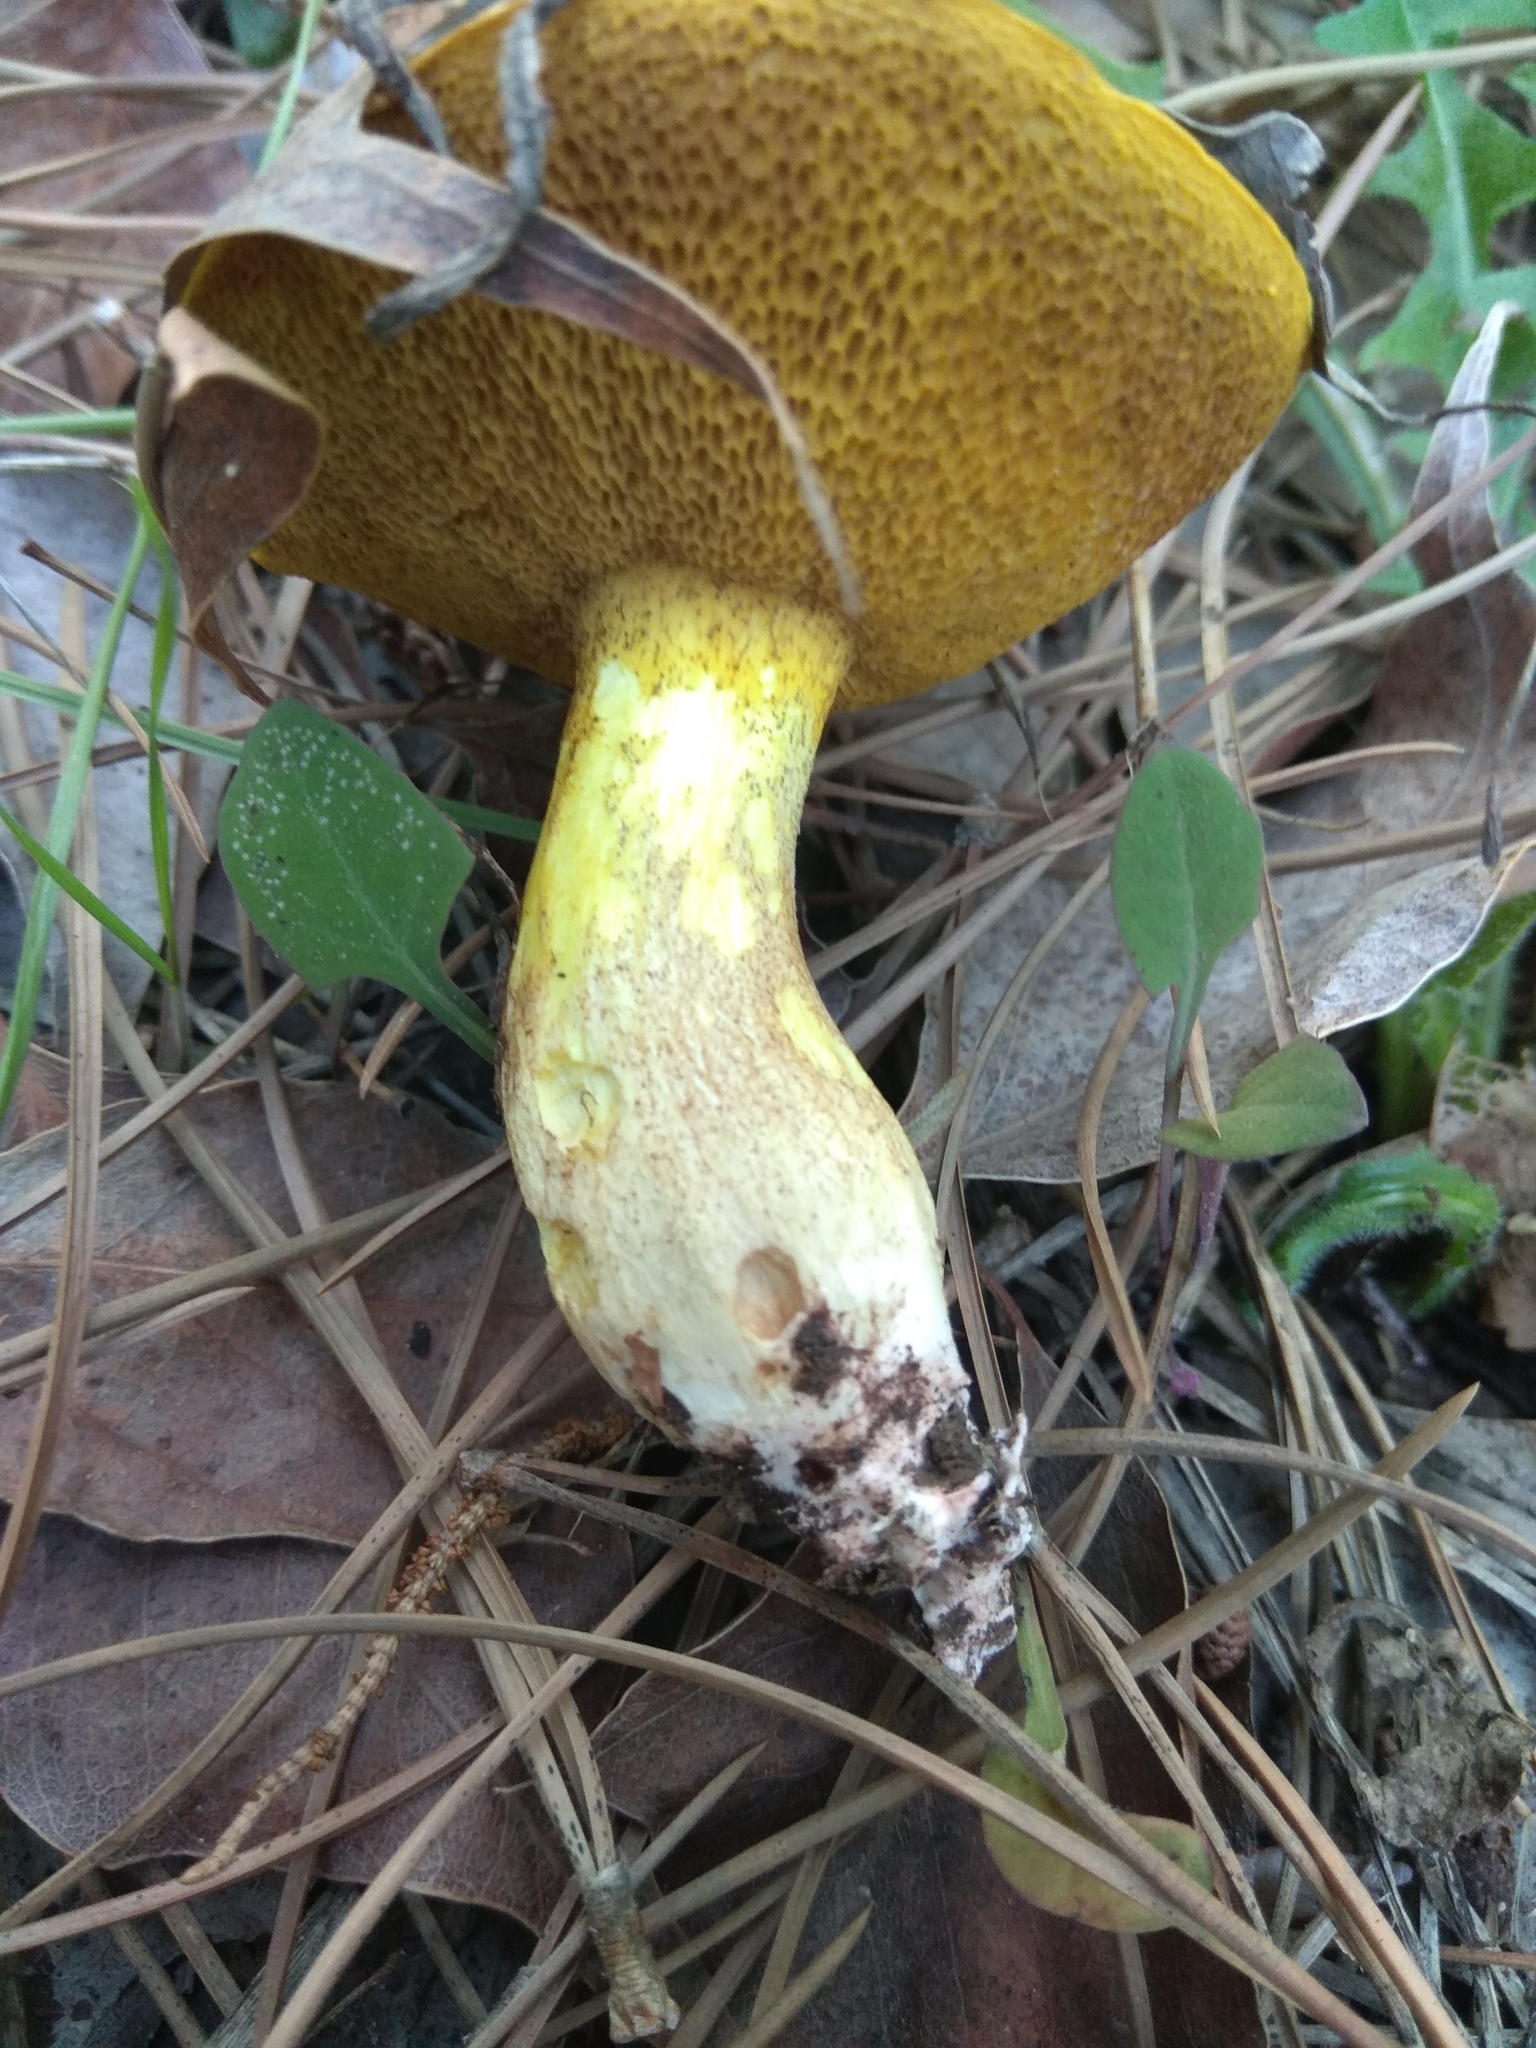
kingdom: Fungi
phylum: Basidiomycota
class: Agaricomycetes
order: Boletales
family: Suillaceae
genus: Suillus
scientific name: Suillus collinitus
